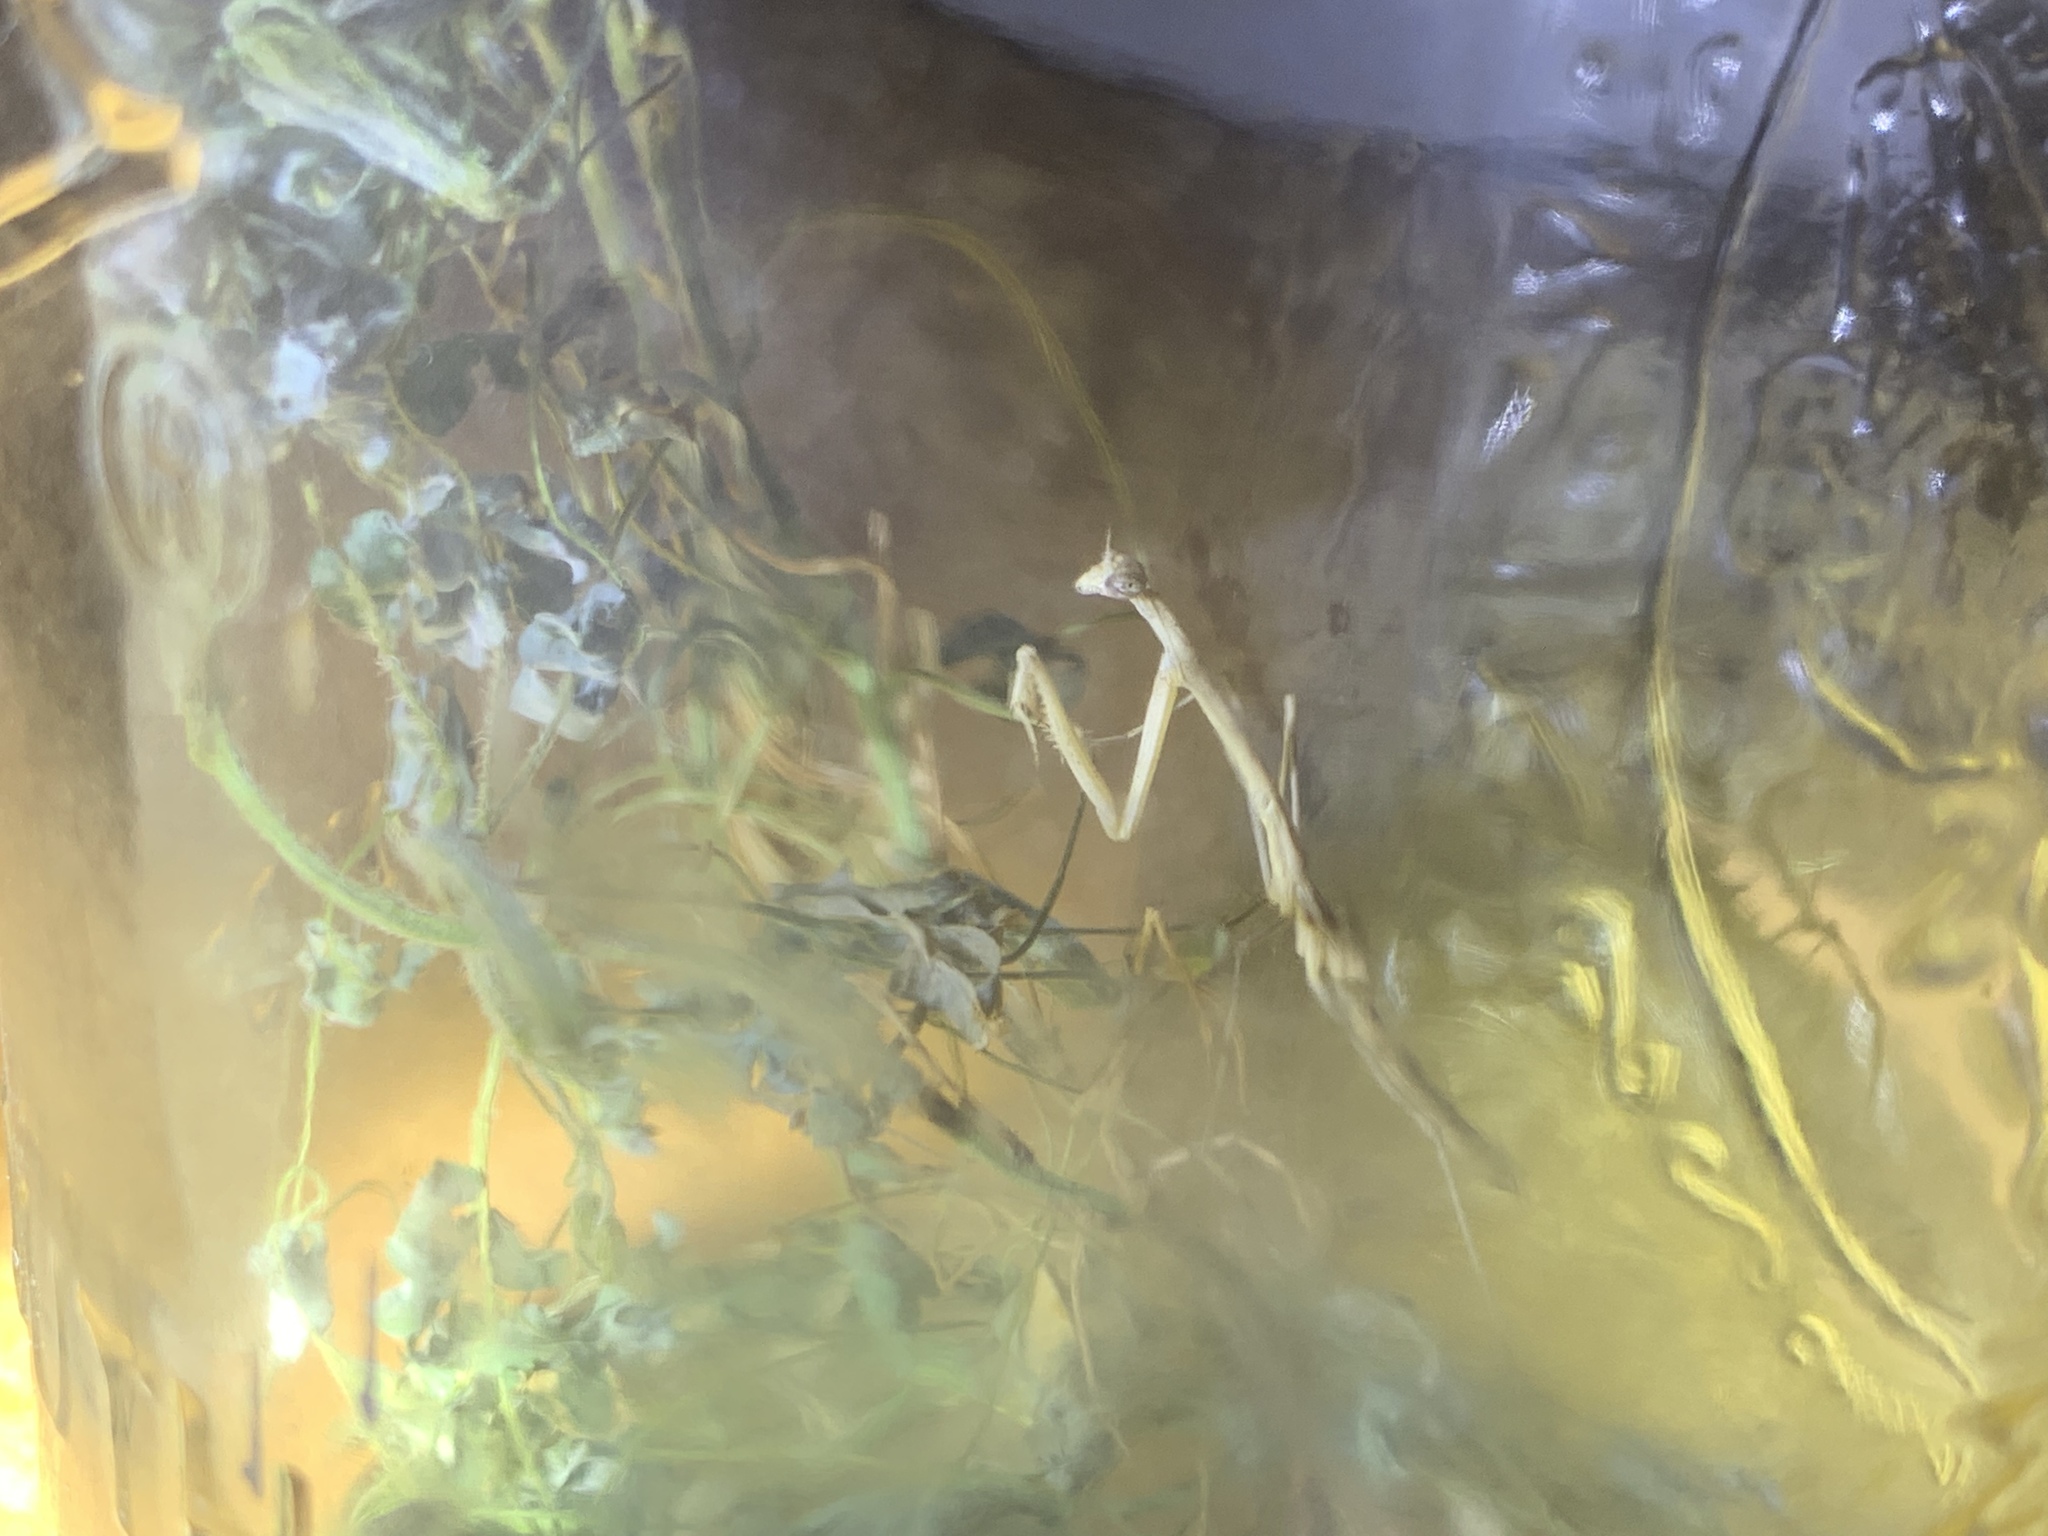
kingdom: Animalia
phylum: Arthropoda
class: Insecta
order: Mantodea
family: Thespidae
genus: Bistanta
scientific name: Bistanta mexicana
